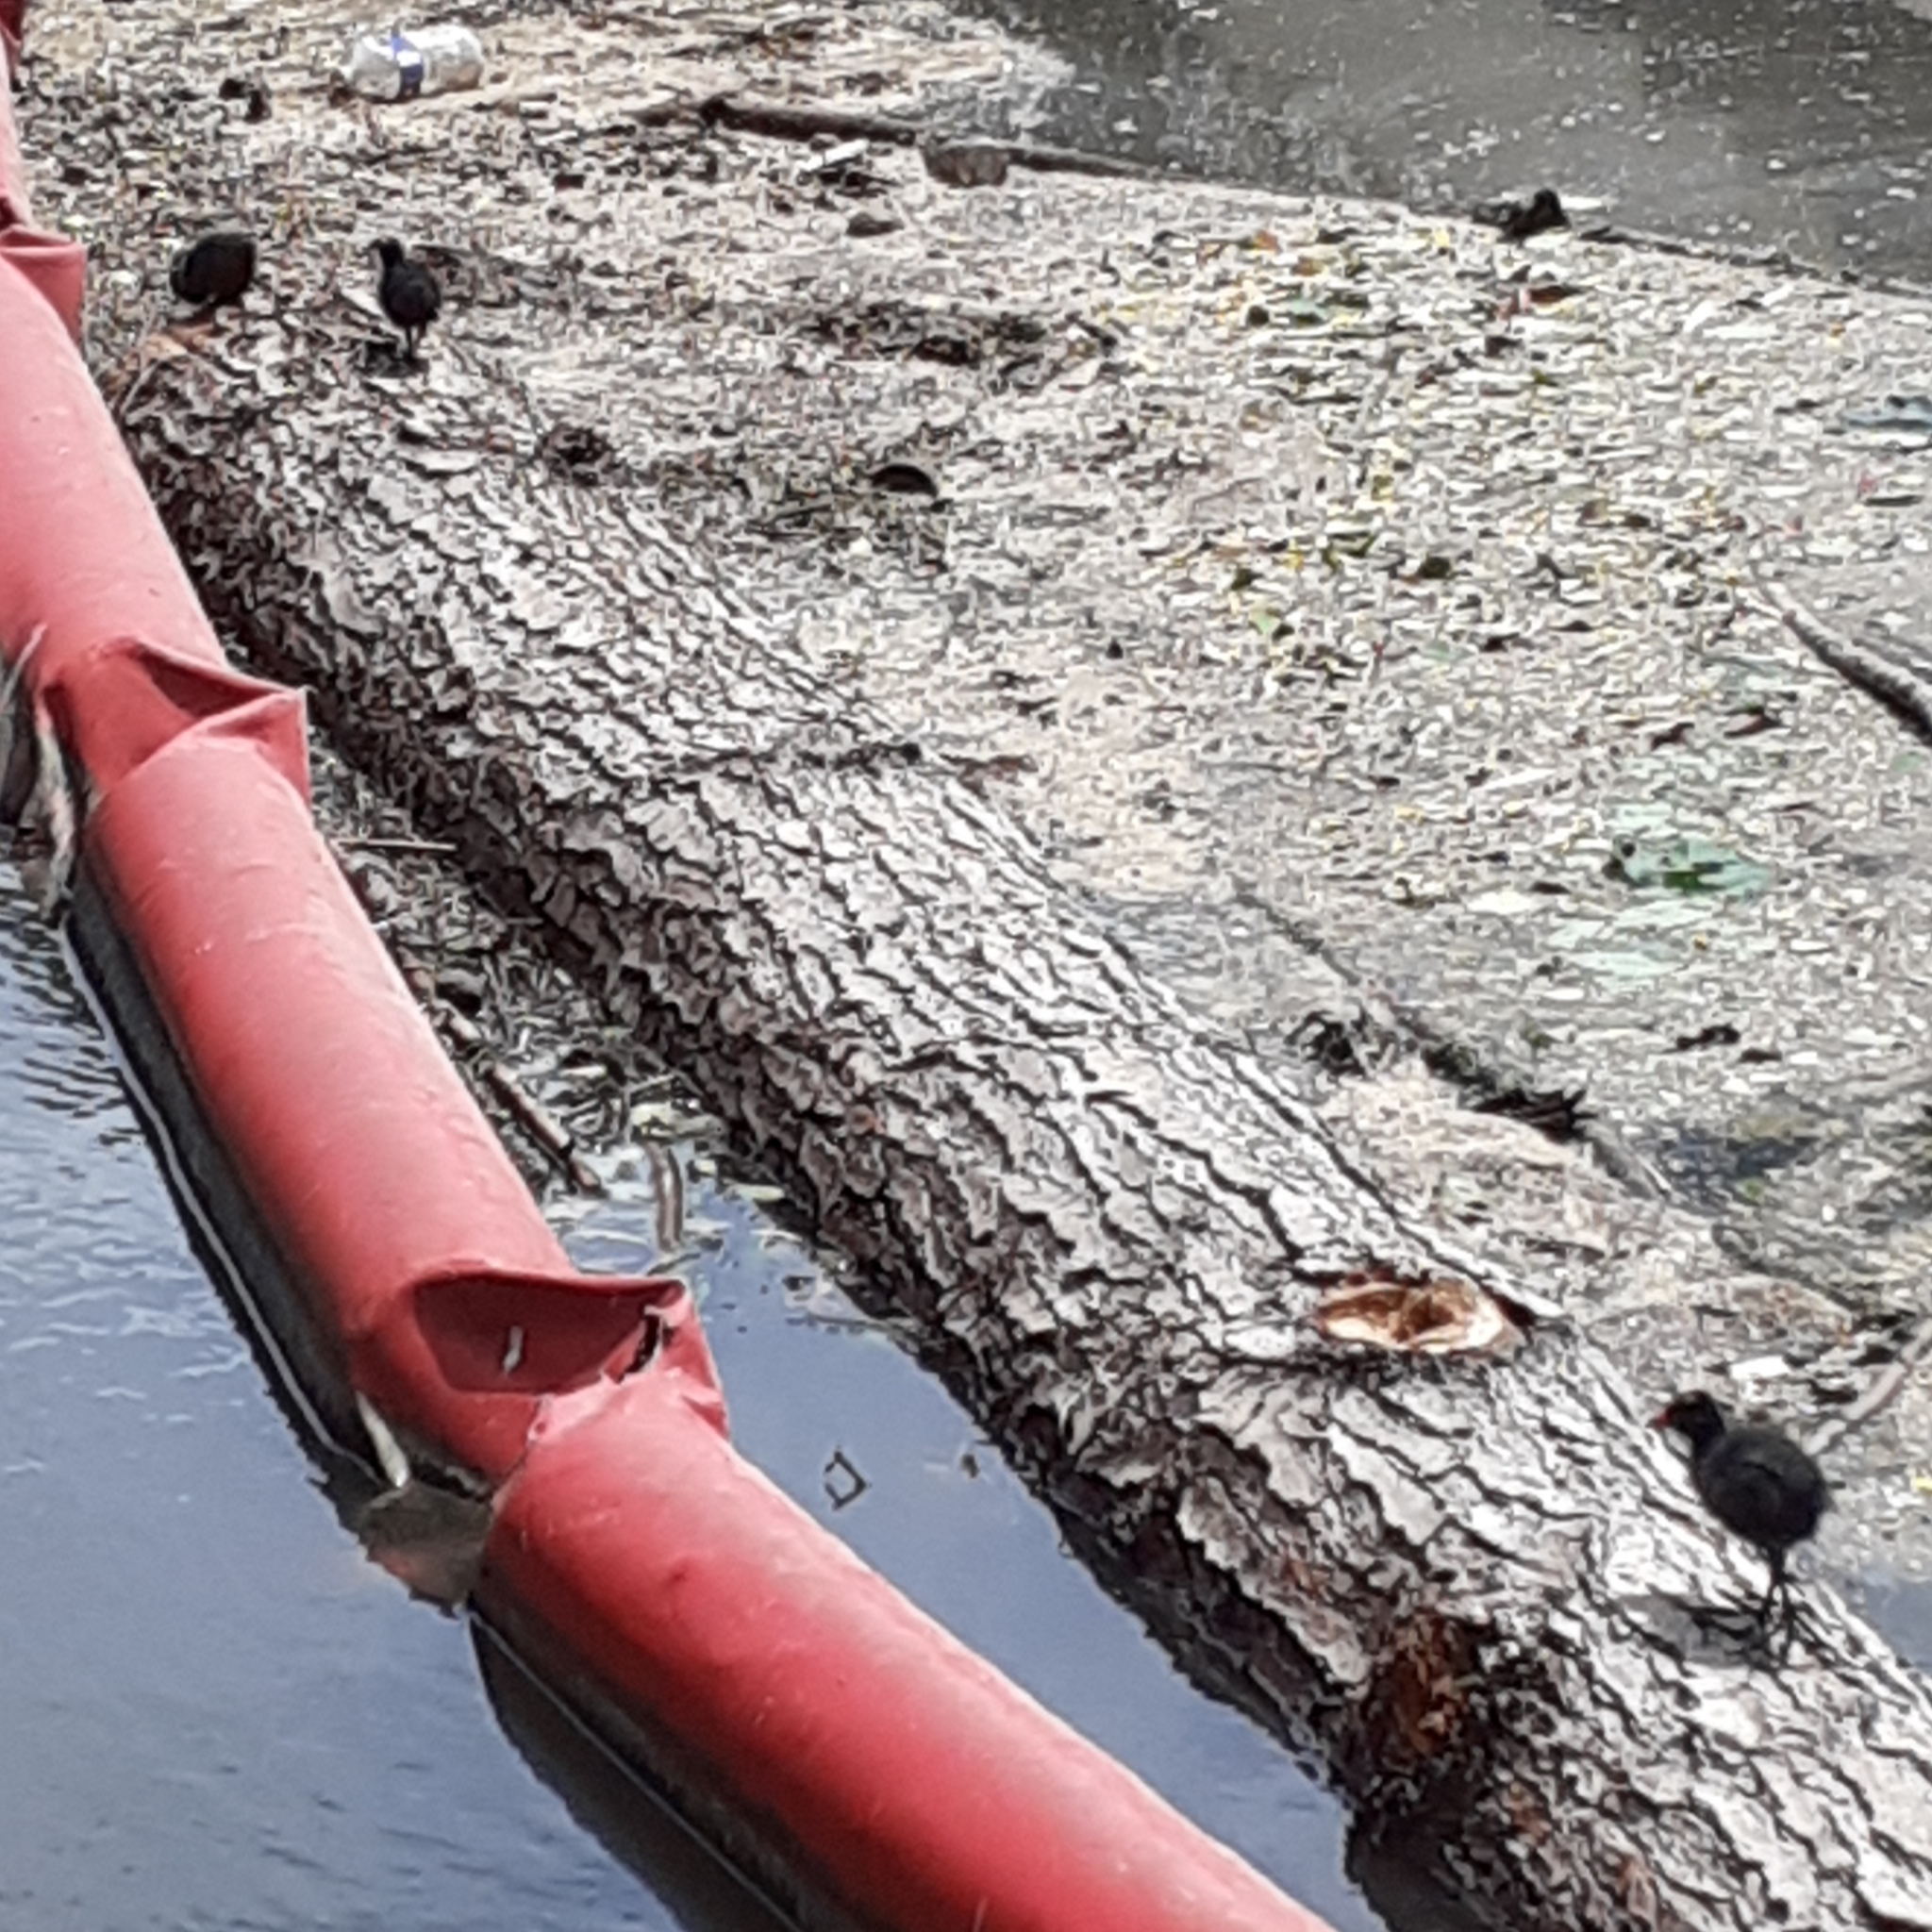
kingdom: Animalia
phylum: Chordata
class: Aves
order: Gruiformes
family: Rallidae
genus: Gallinula
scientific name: Gallinula chloropus
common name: Common moorhen
